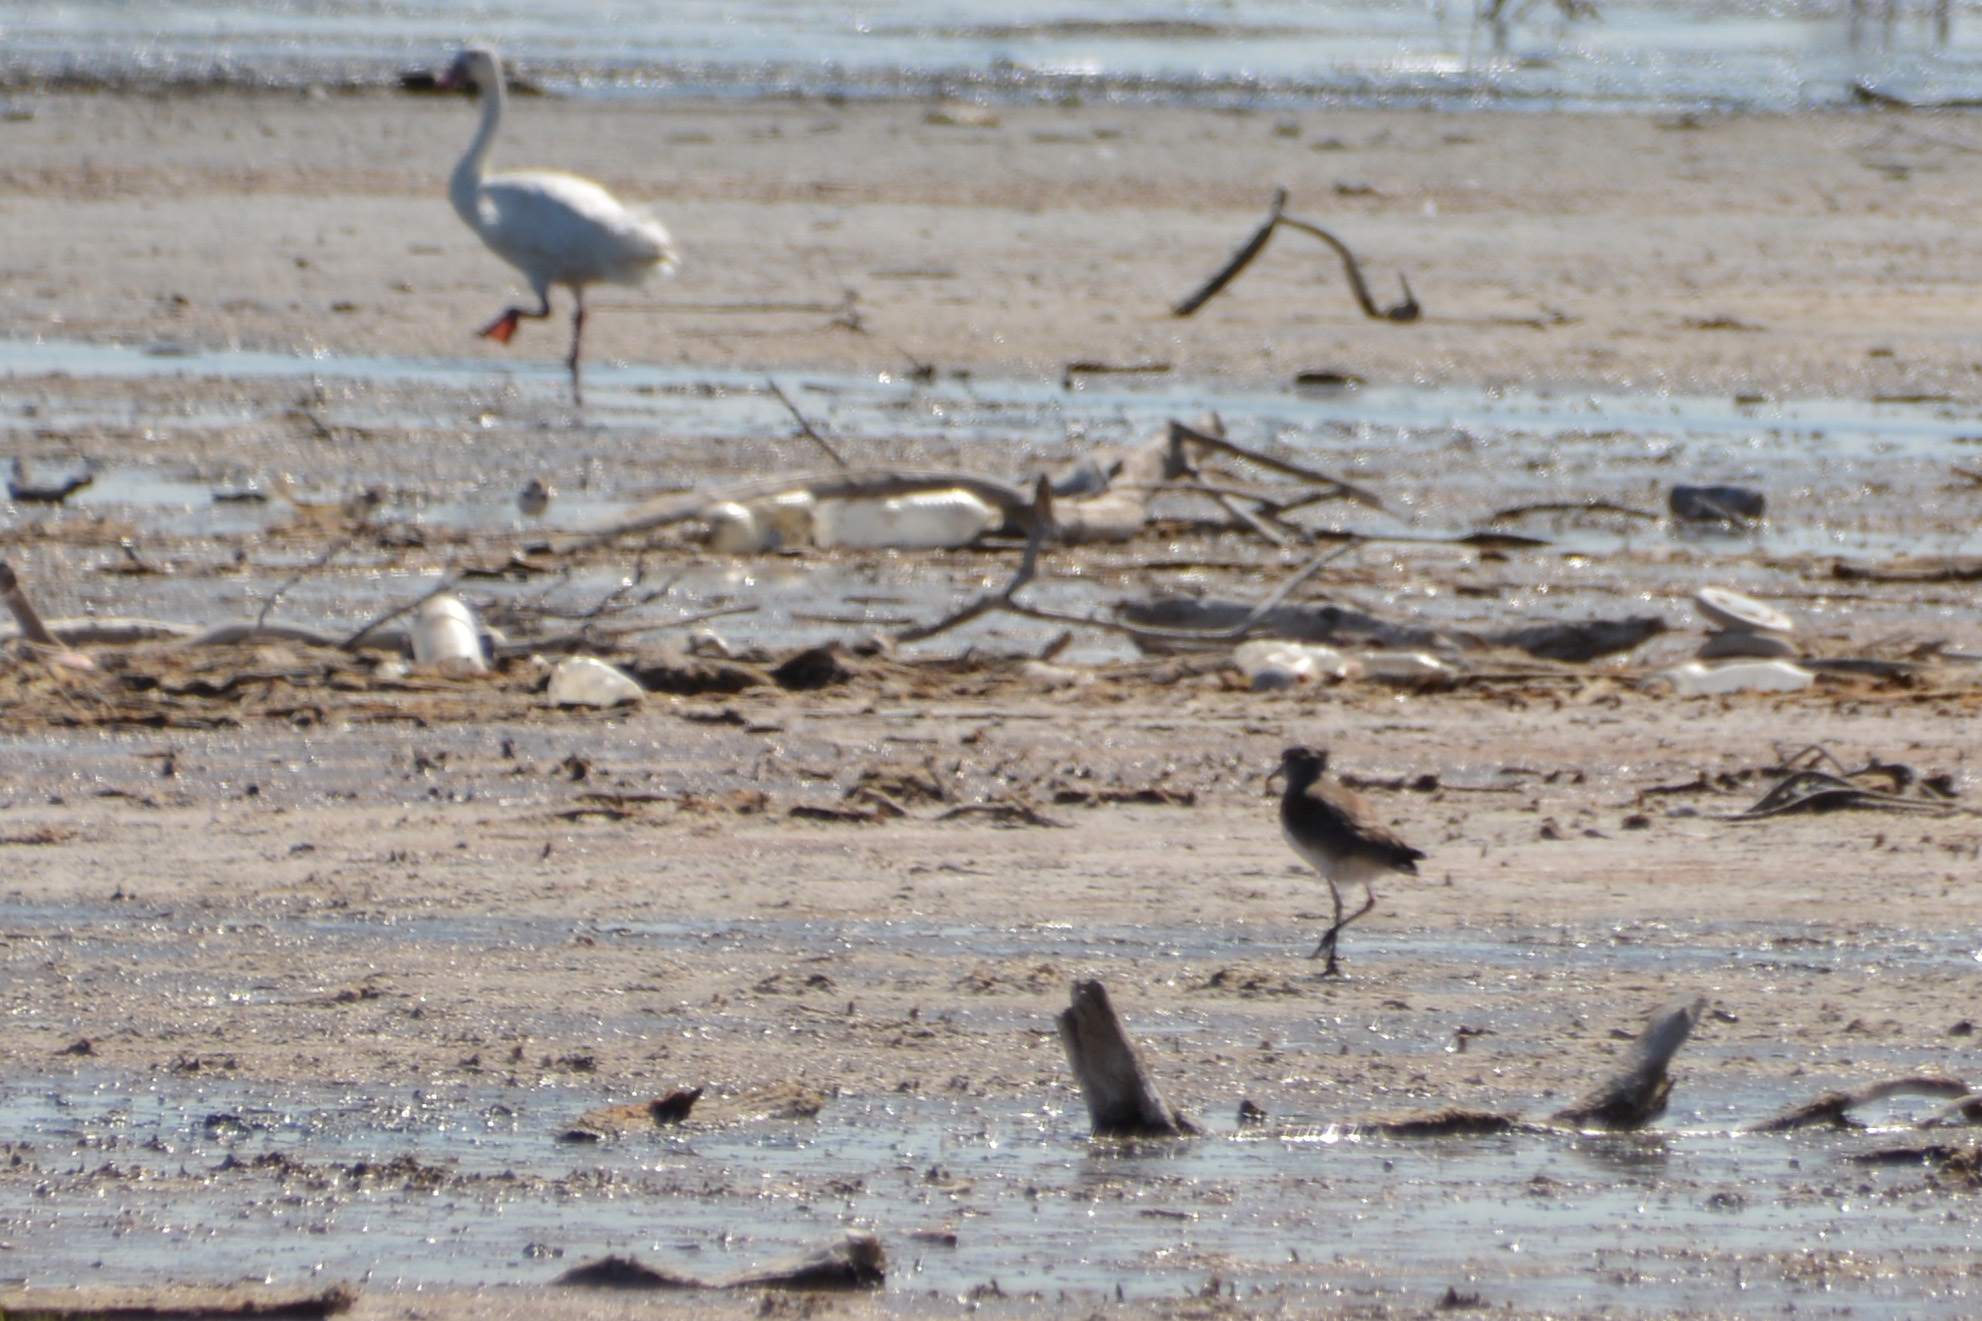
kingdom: Animalia
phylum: Chordata
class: Aves
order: Charadriiformes
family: Charadriidae
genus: Vanellus
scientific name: Vanellus chilensis
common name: Southern lapwing
